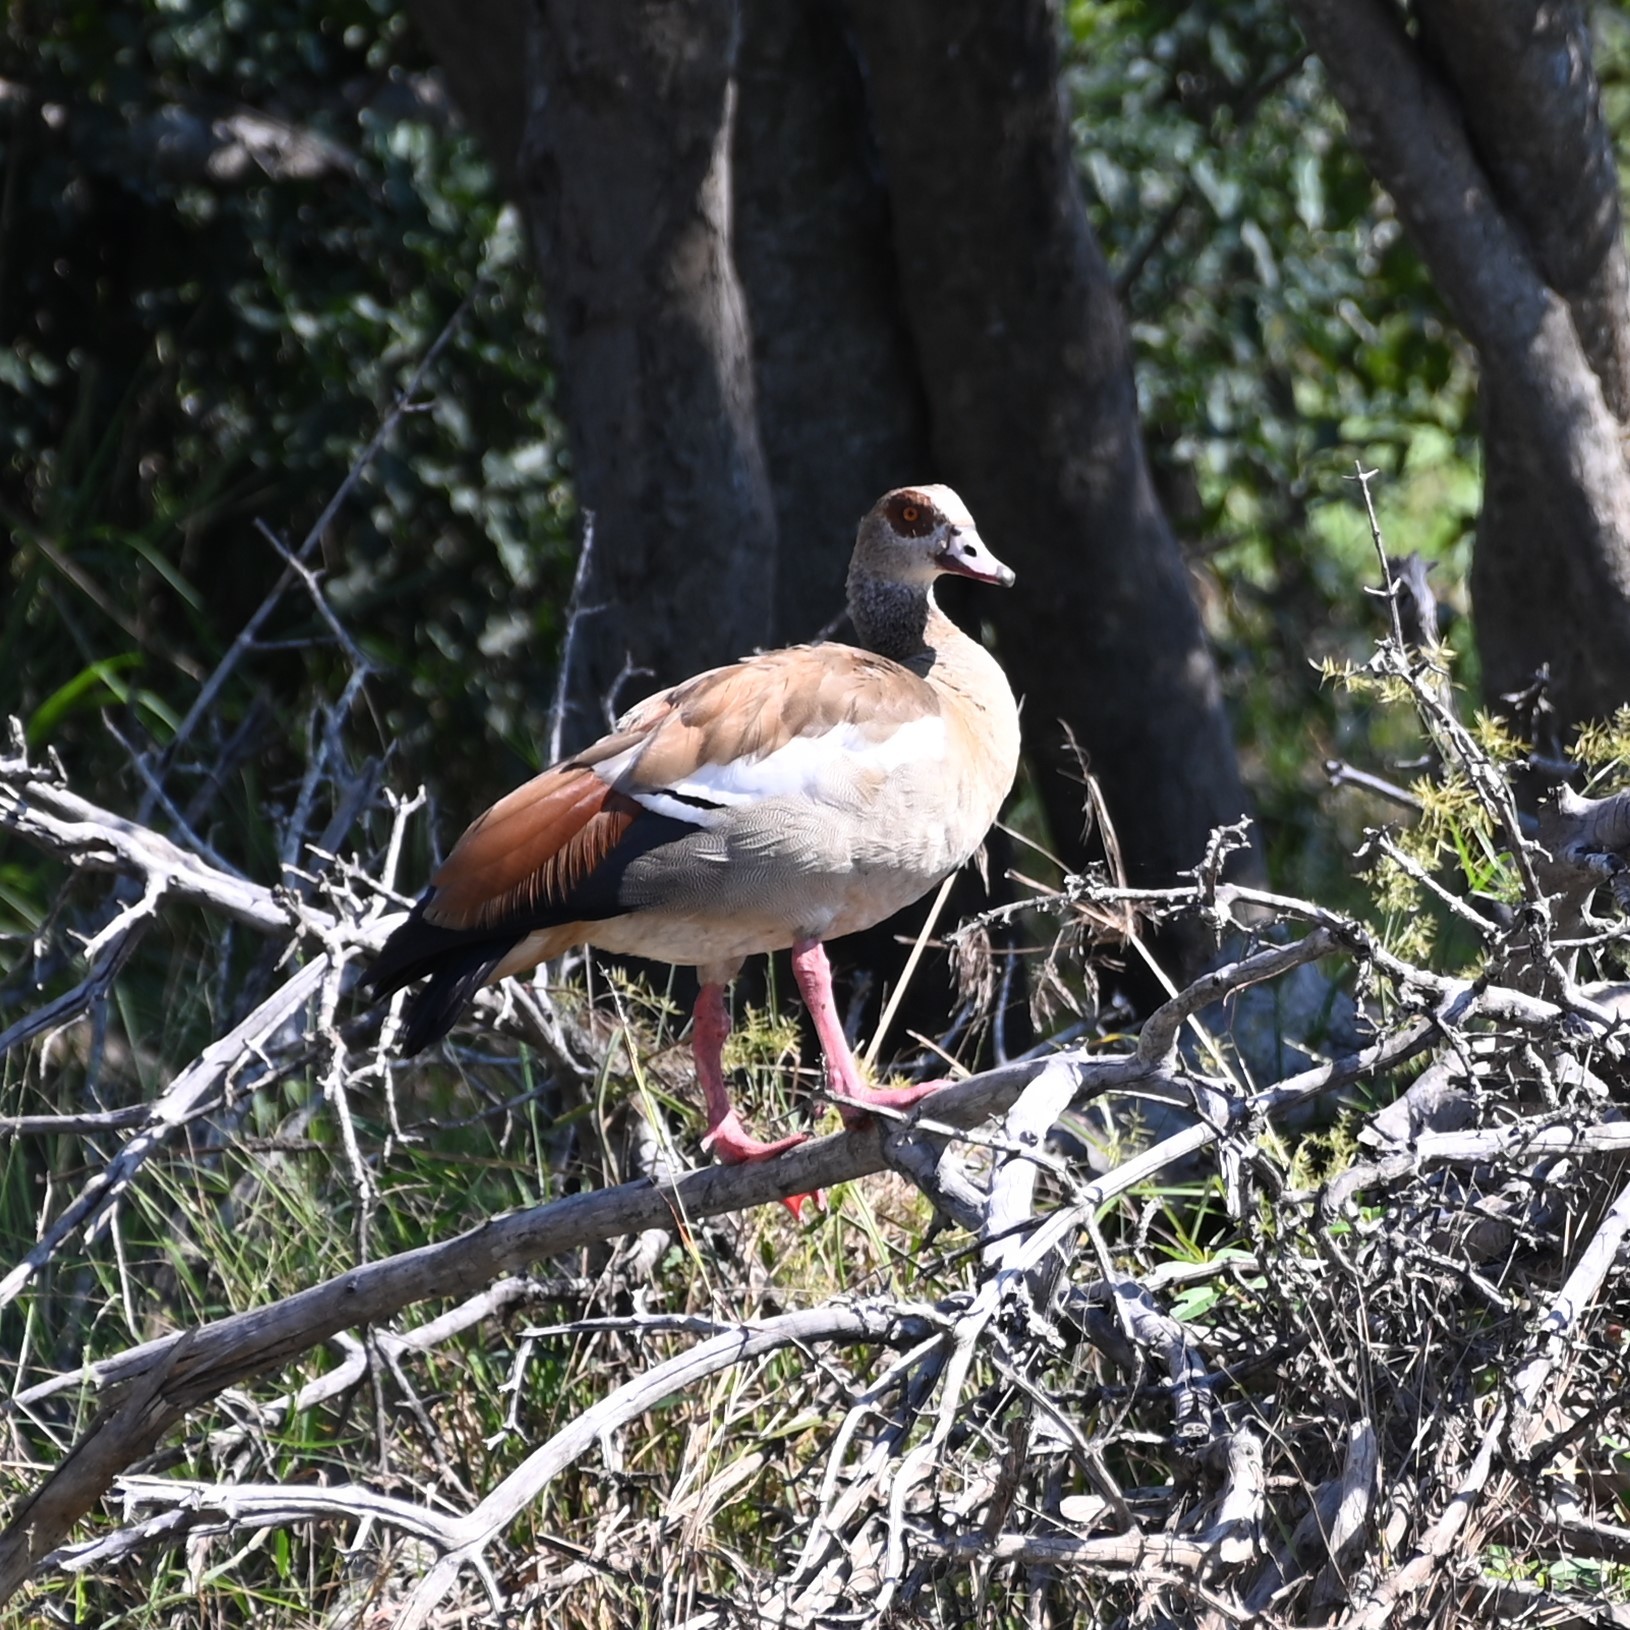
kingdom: Animalia
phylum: Chordata
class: Aves
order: Anseriformes
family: Anatidae
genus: Alopochen
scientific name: Alopochen aegyptiaca
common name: Egyptian goose
